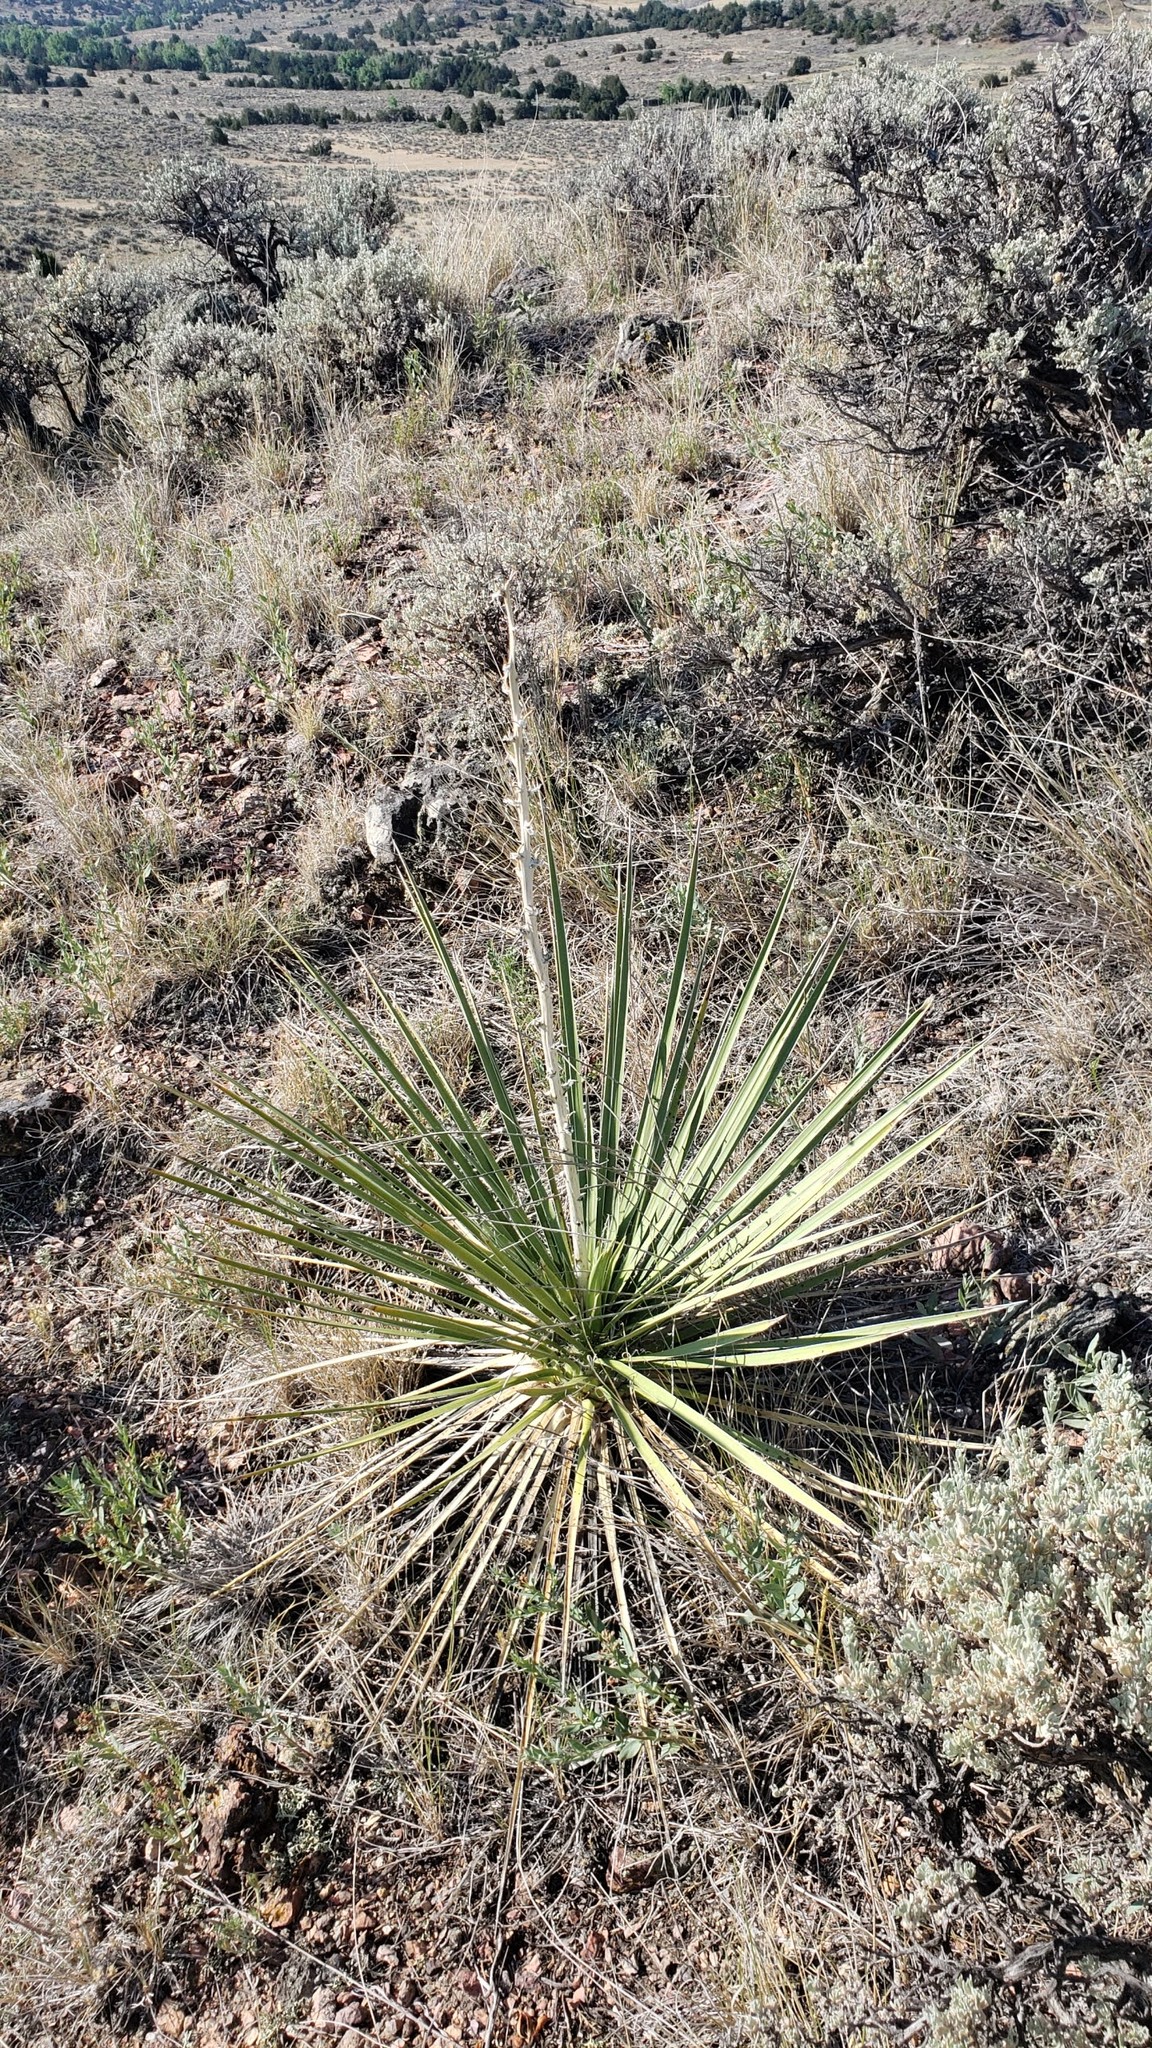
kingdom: Plantae
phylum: Tracheophyta
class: Liliopsida
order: Asparagales
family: Asparagaceae
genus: Yucca
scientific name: Yucca glauca
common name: Great plains yucca
